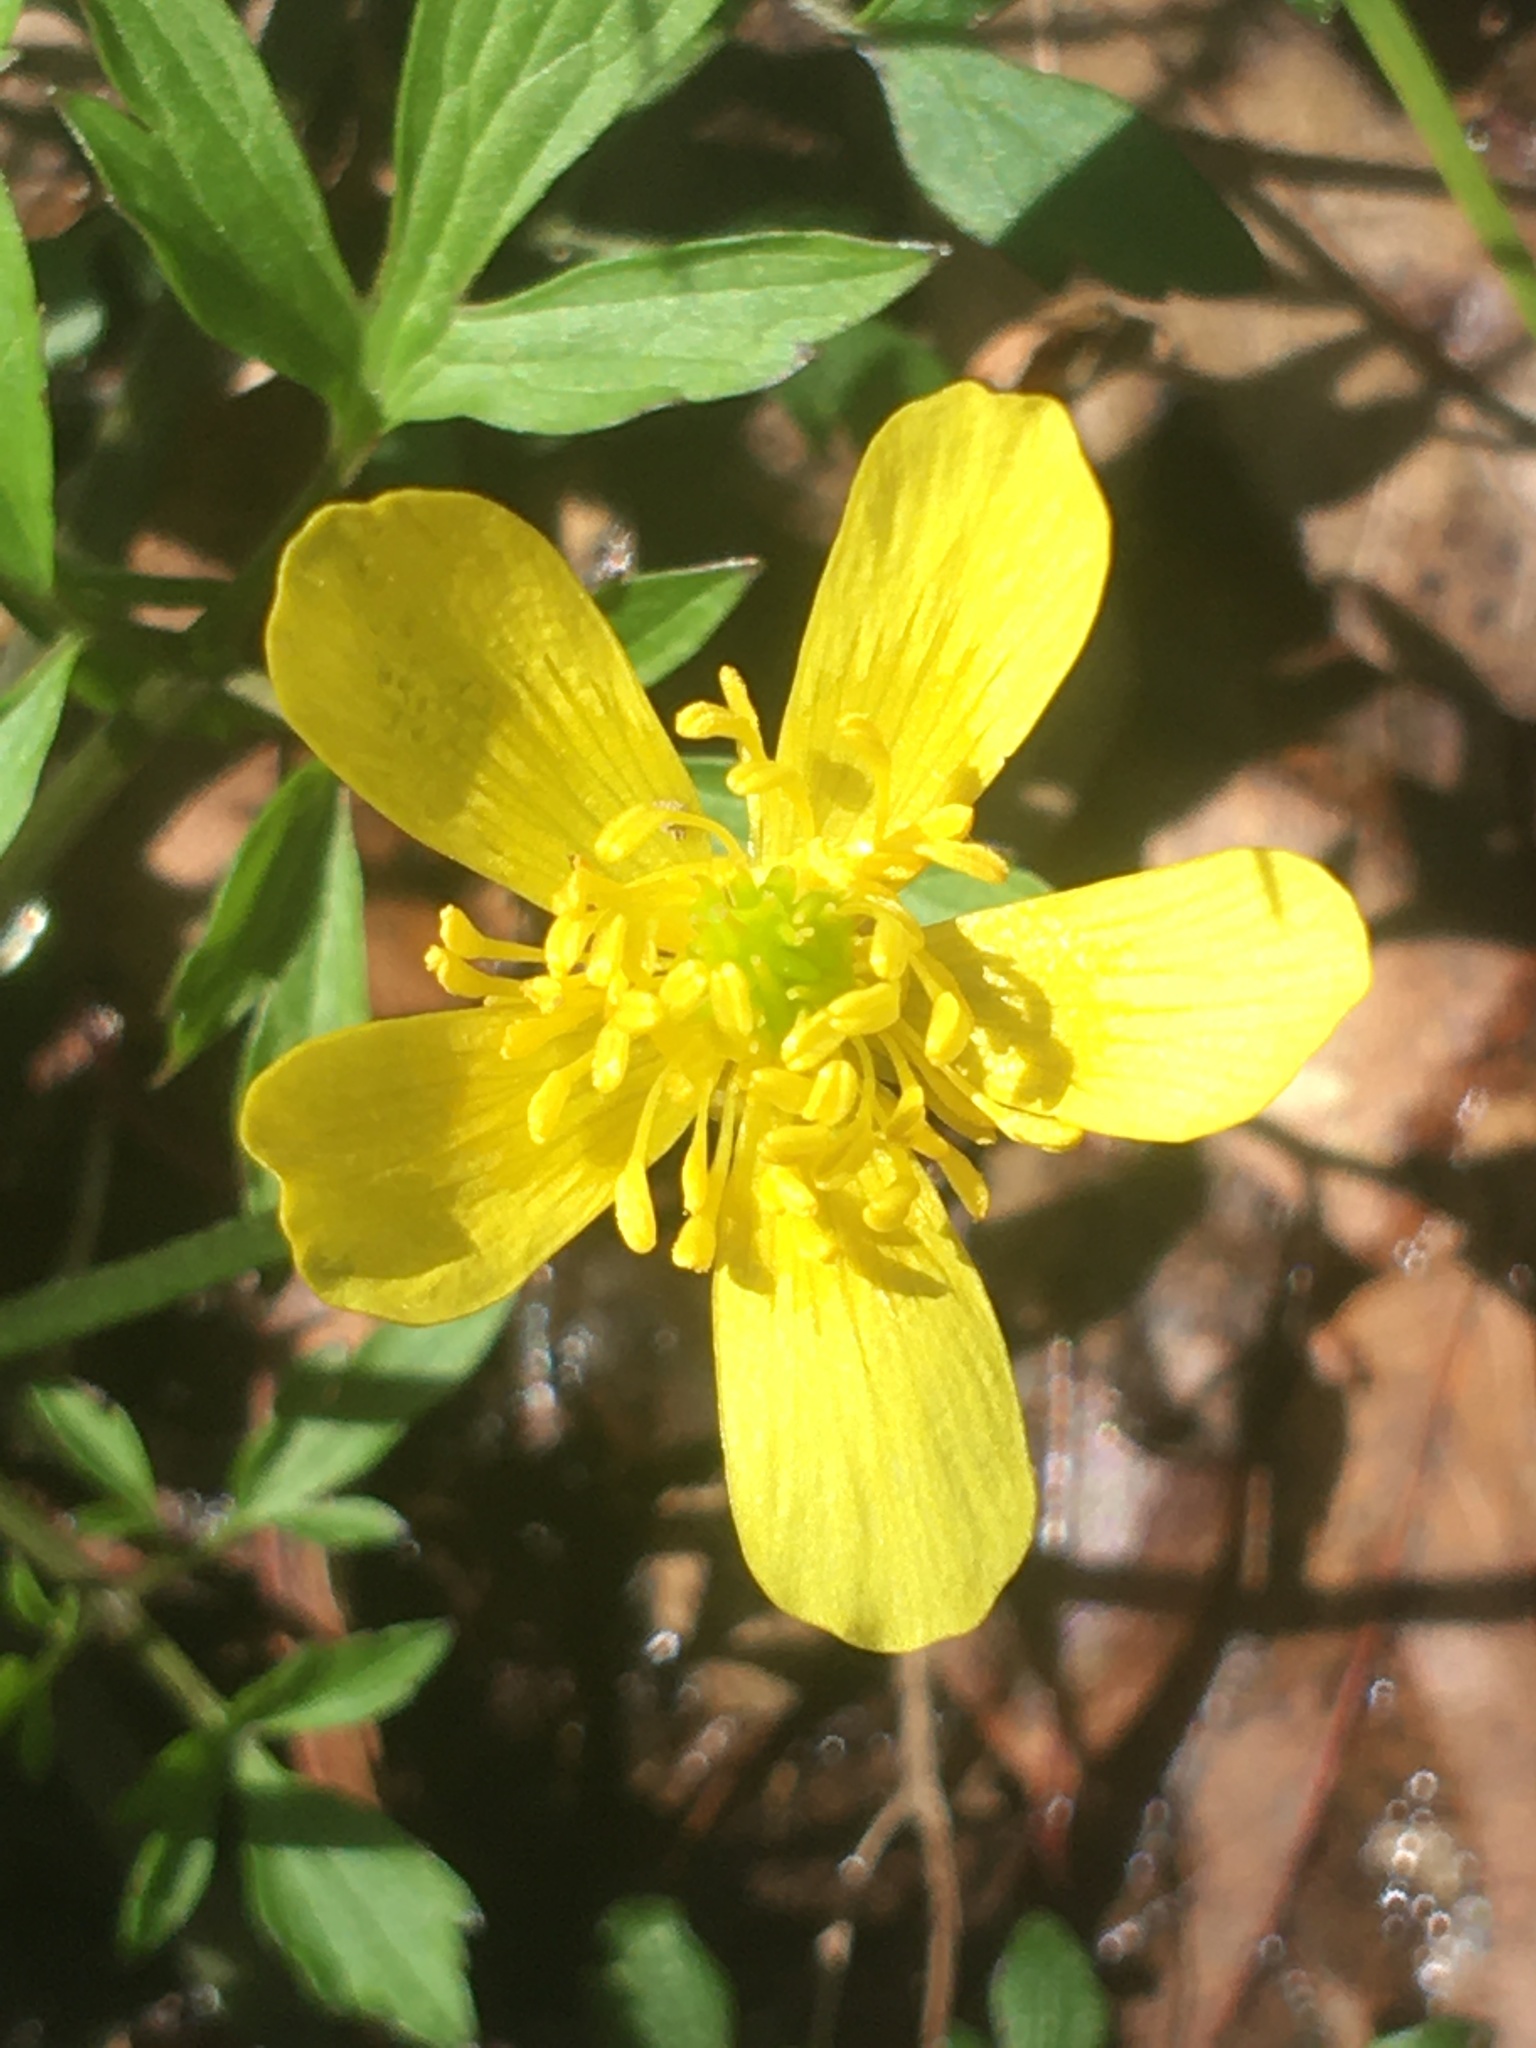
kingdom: Plantae
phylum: Tracheophyta
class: Magnoliopsida
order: Ranunculales
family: Ranunculaceae
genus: Ranunculus
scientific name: Ranunculus hispidus
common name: Bristly buttercup
